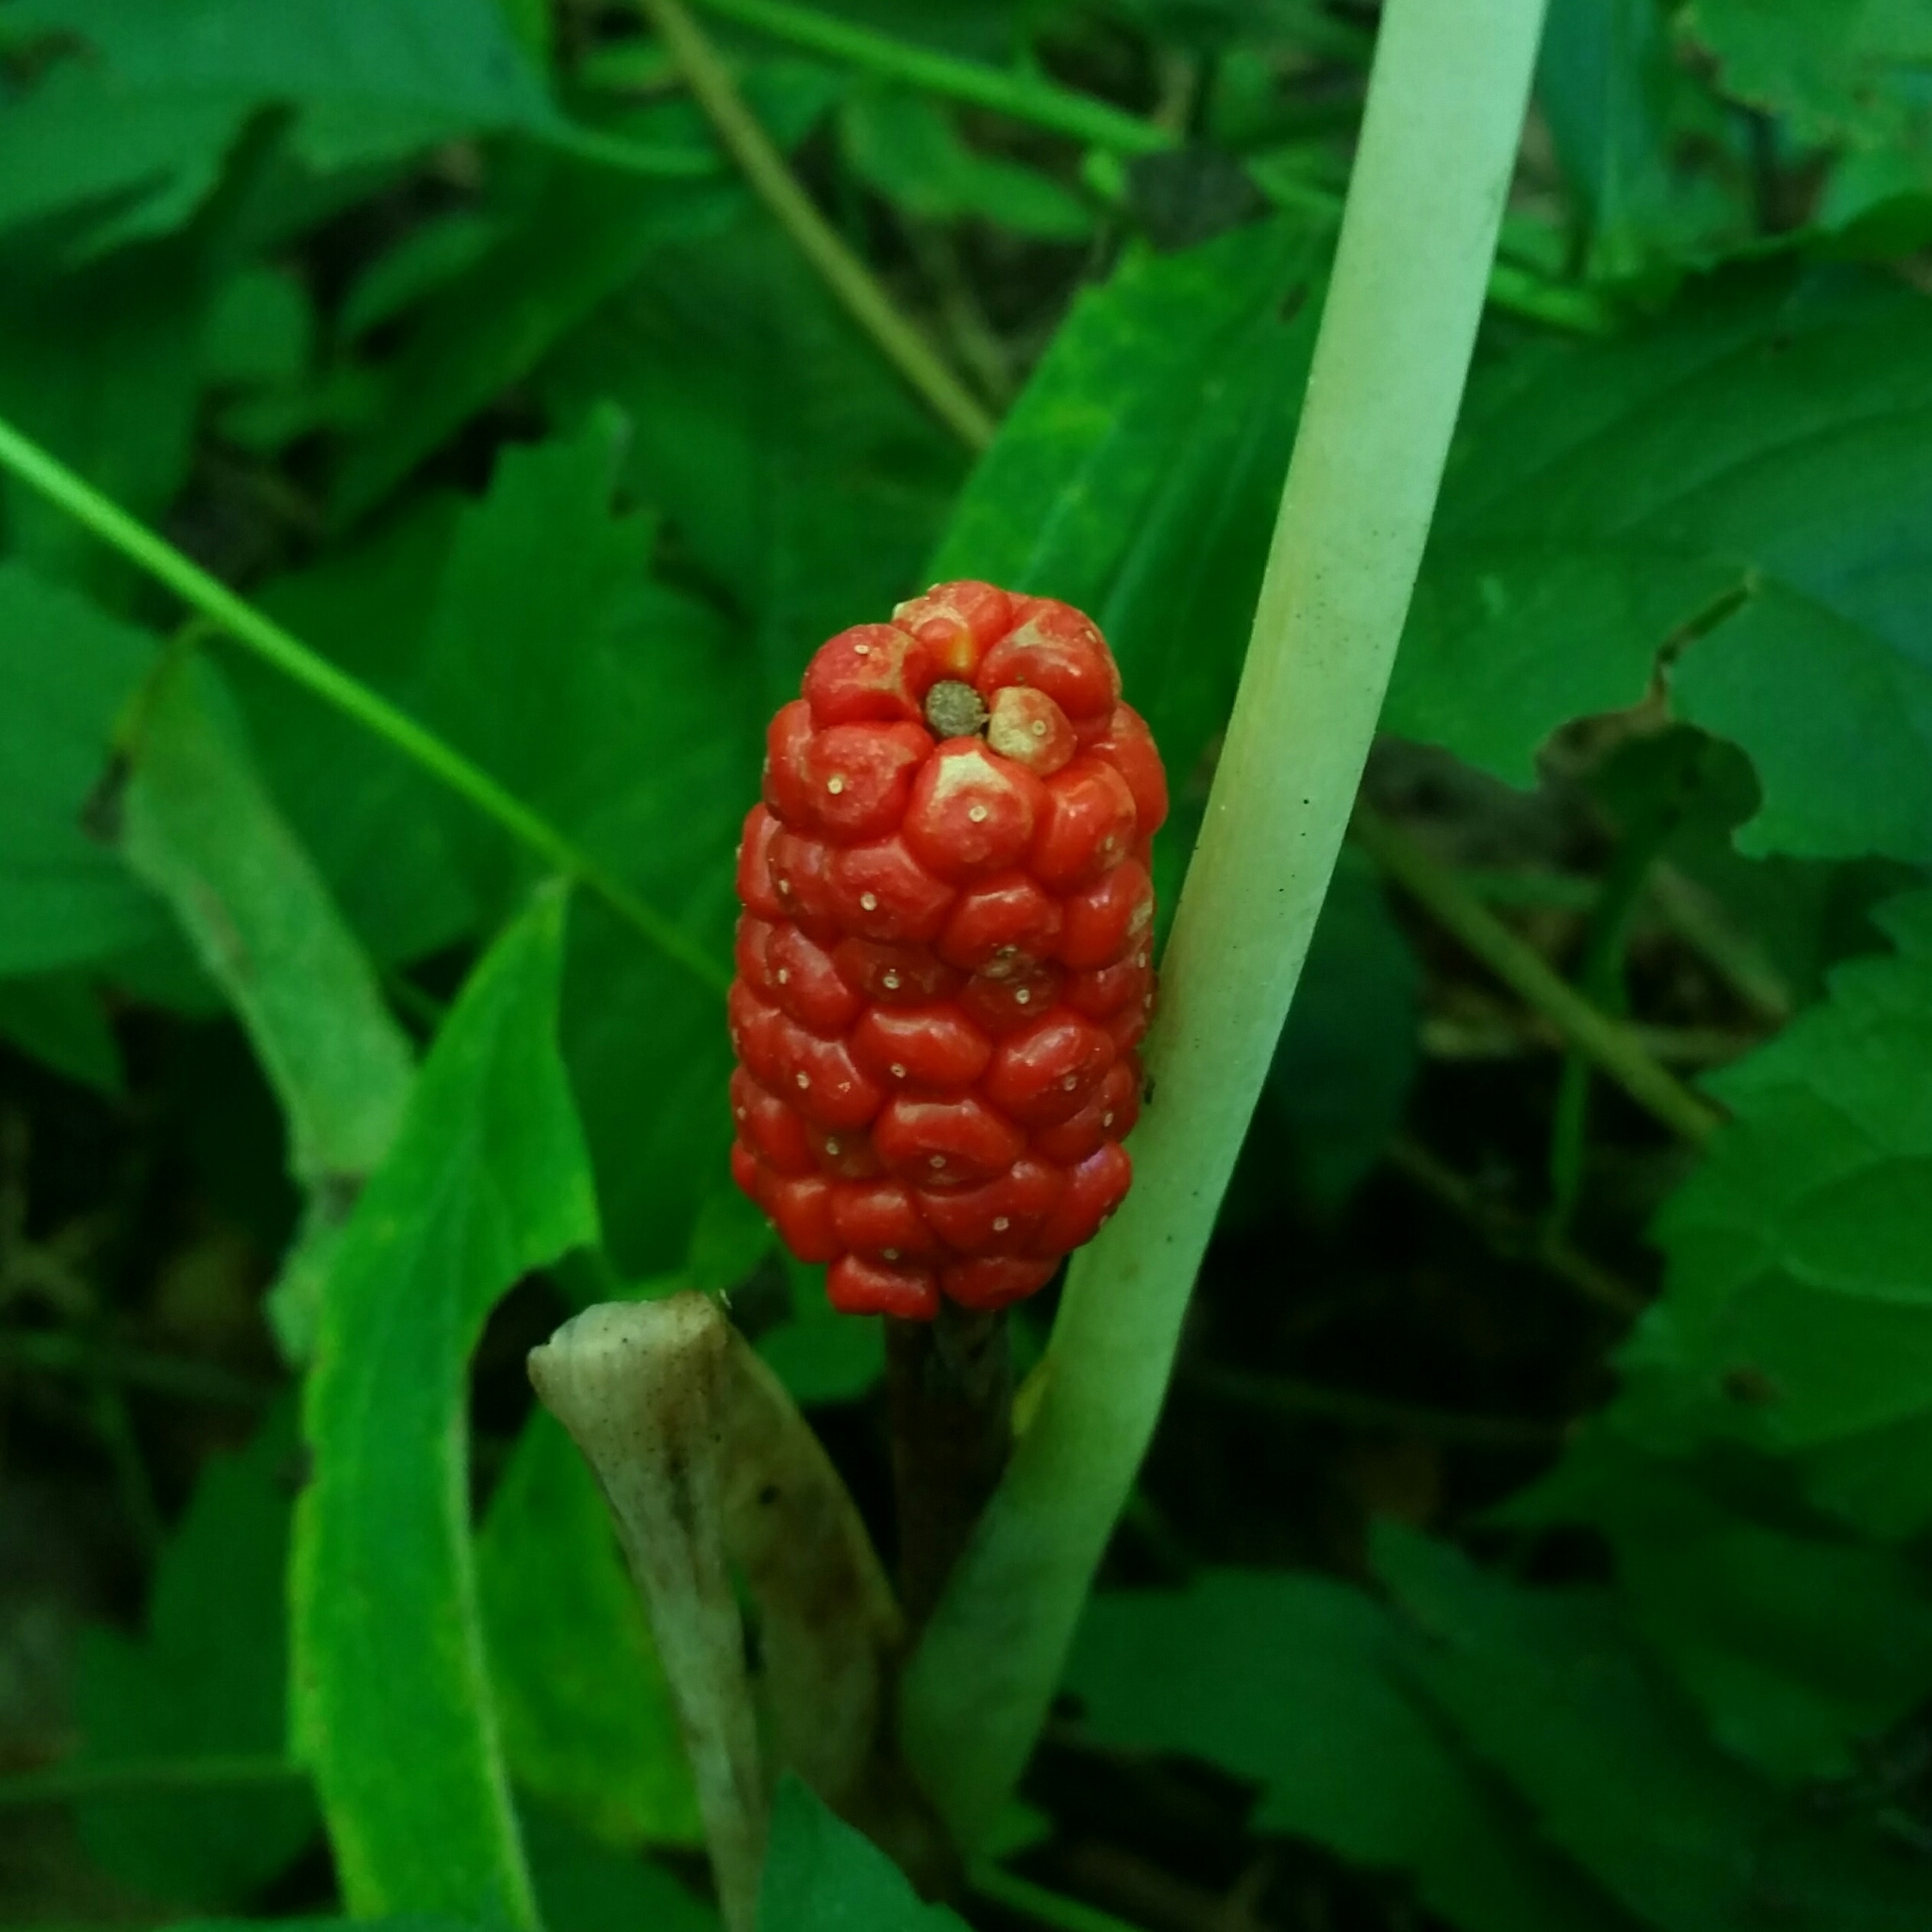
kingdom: Plantae
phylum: Tracheophyta
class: Liliopsida
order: Alismatales
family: Araceae
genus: Arisaema
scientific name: Arisaema triphyllum
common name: Jack-in-the-pulpit
